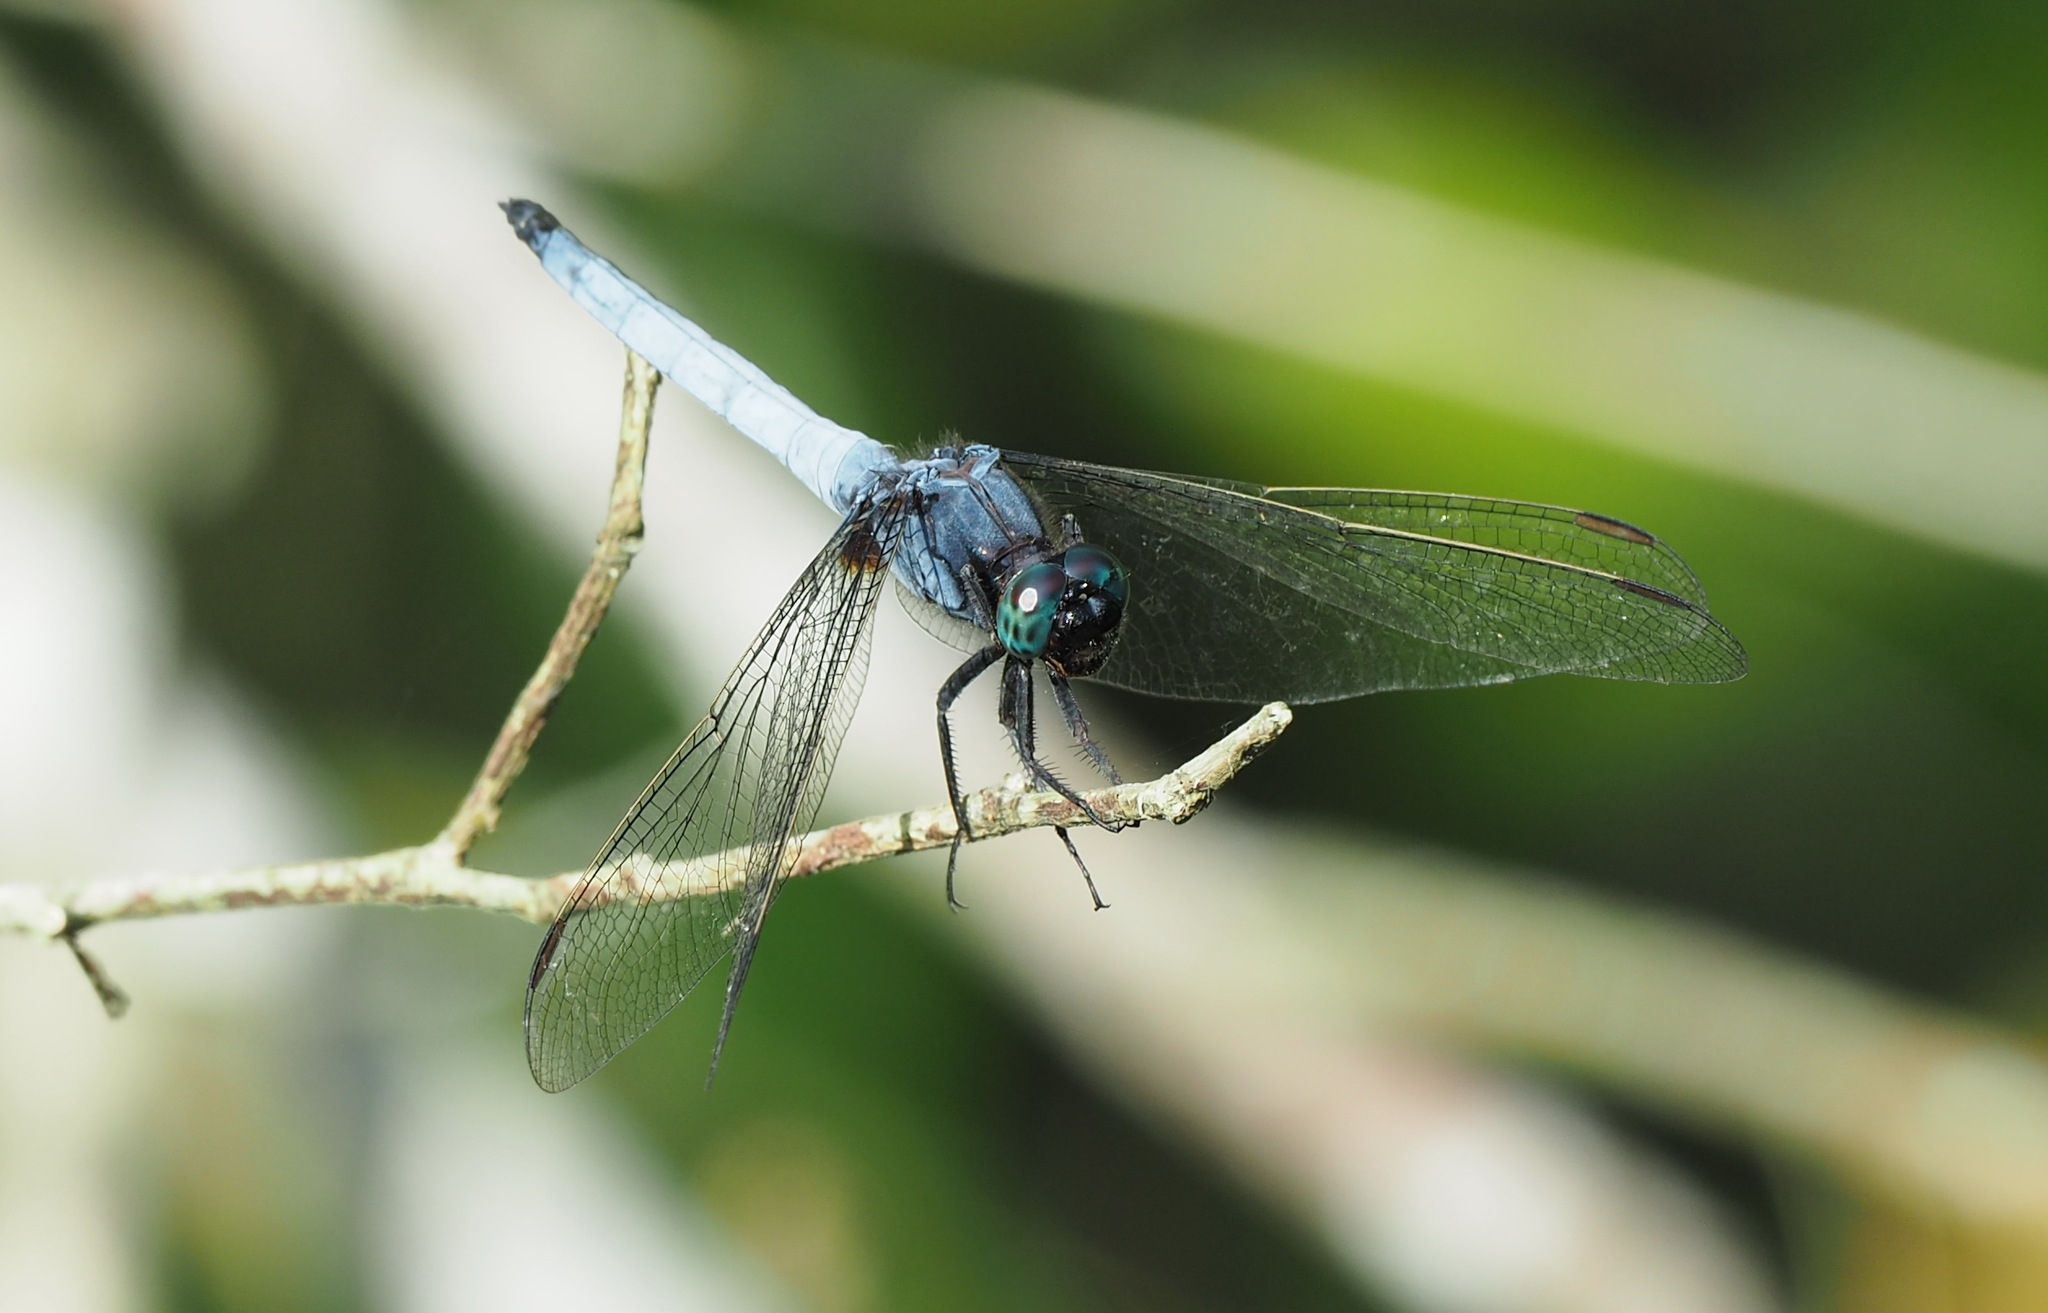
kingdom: Animalia
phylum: Arthropoda
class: Insecta
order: Odonata
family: Libellulidae
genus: Orthetrum
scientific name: Orthetrum glaucum
